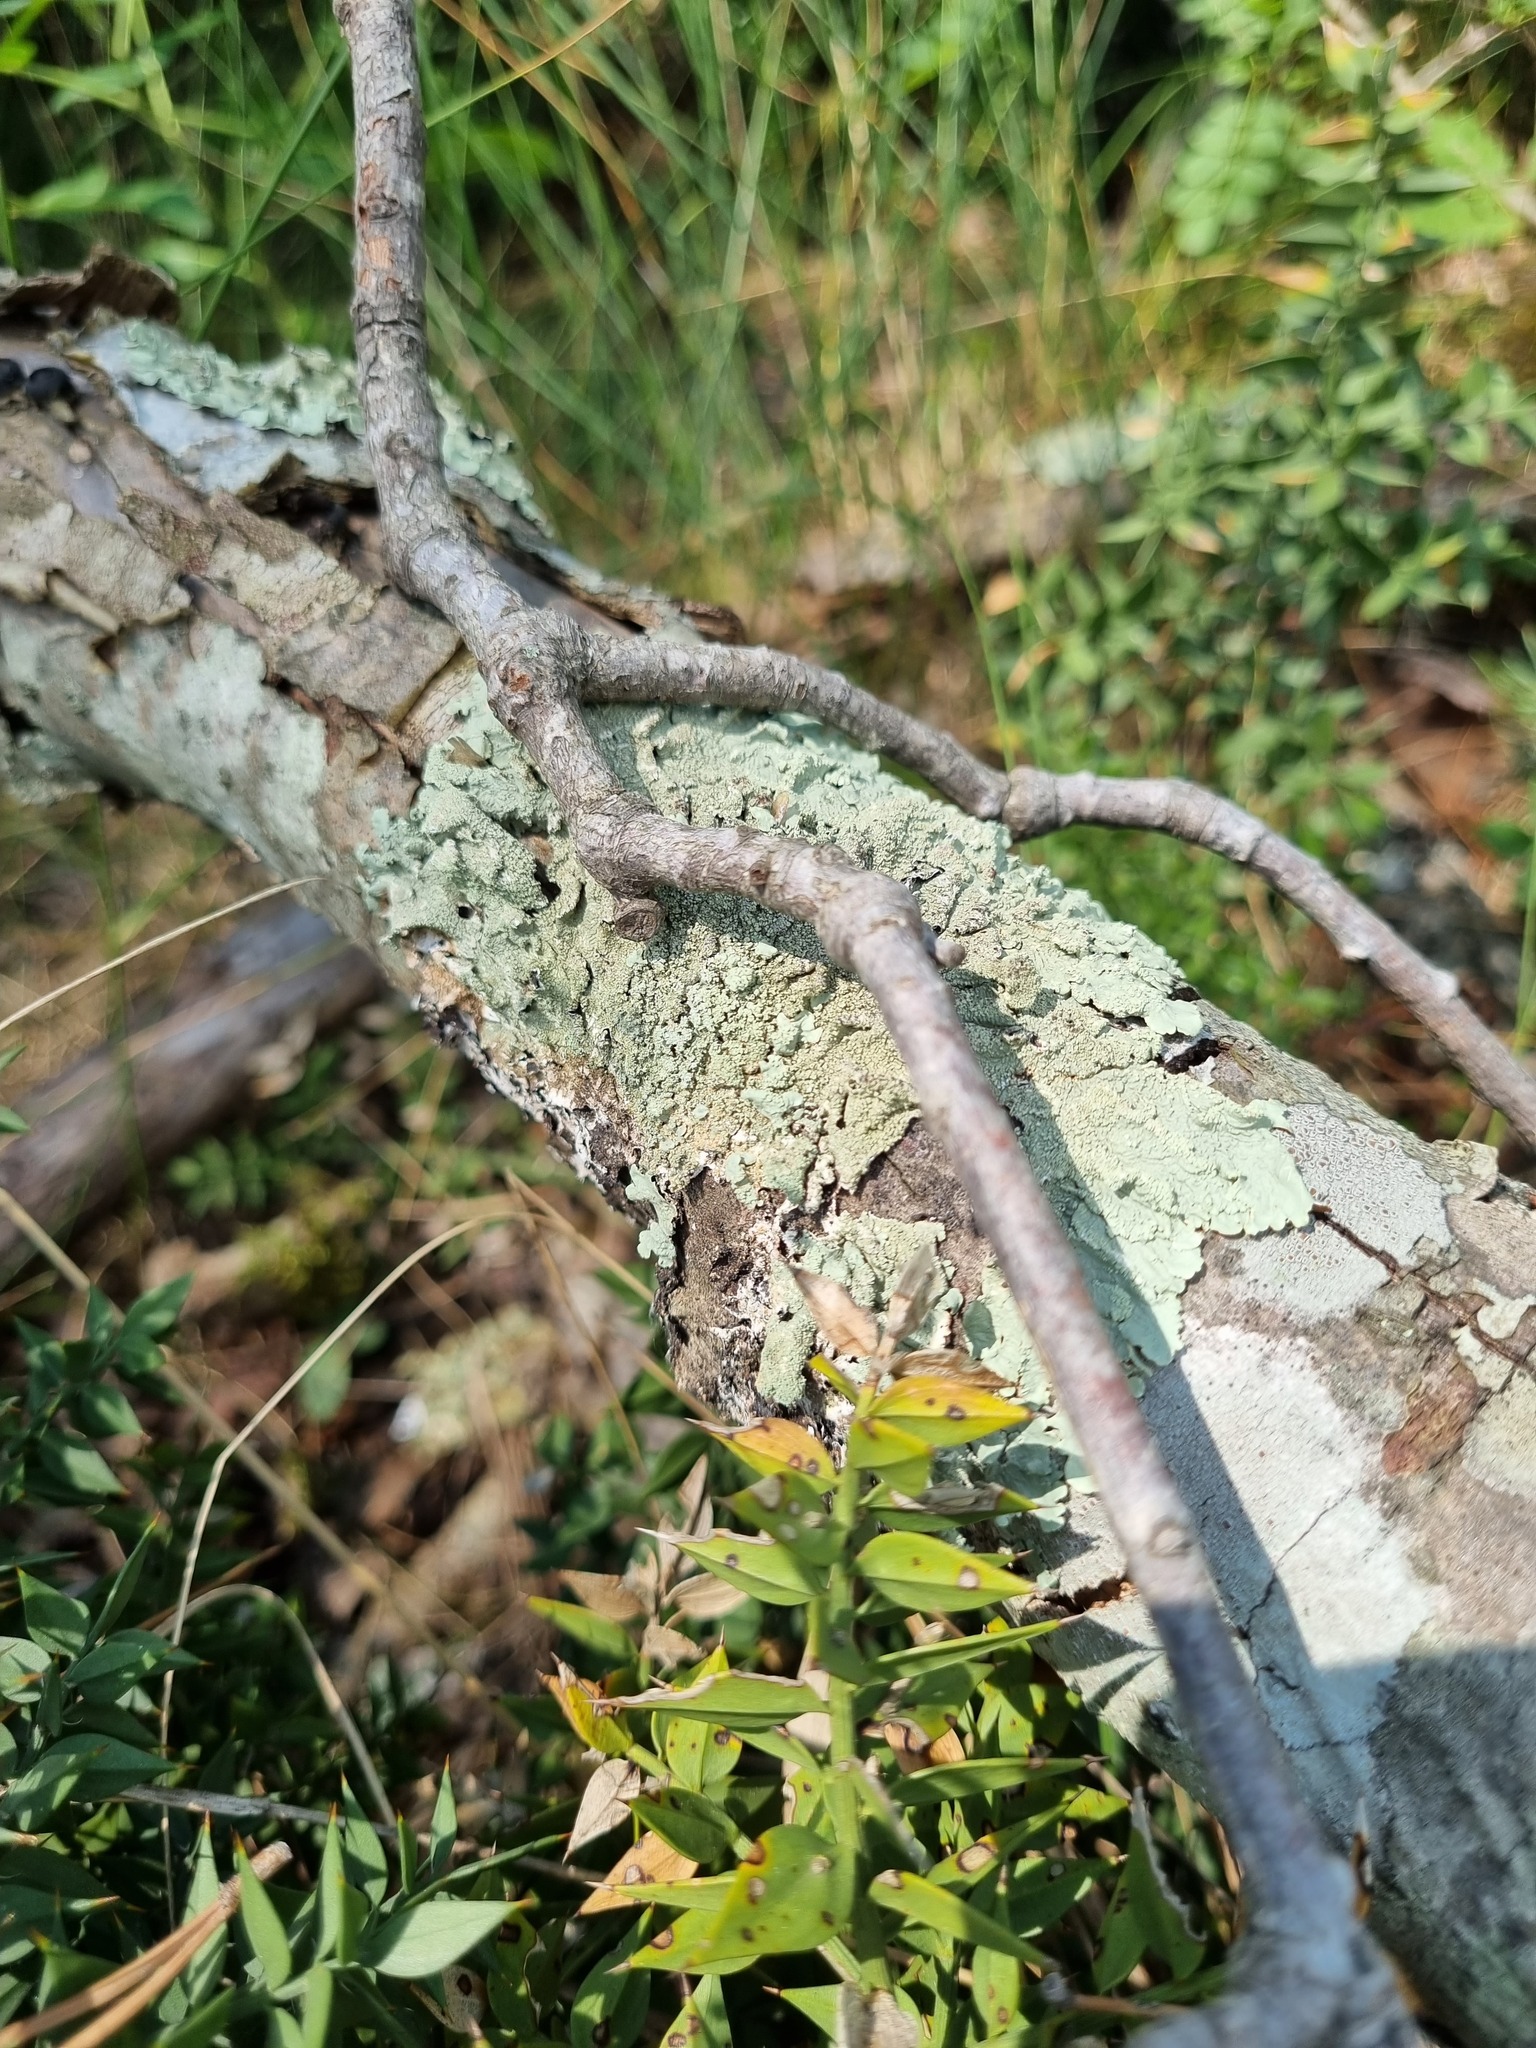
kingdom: Fungi
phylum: Ascomycota
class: Lecanoromycetes
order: Lecanorales
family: Parmeliaceae
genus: Flavoparmelia
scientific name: Flavoparmelia caperata
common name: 40-mile per hour lichen
